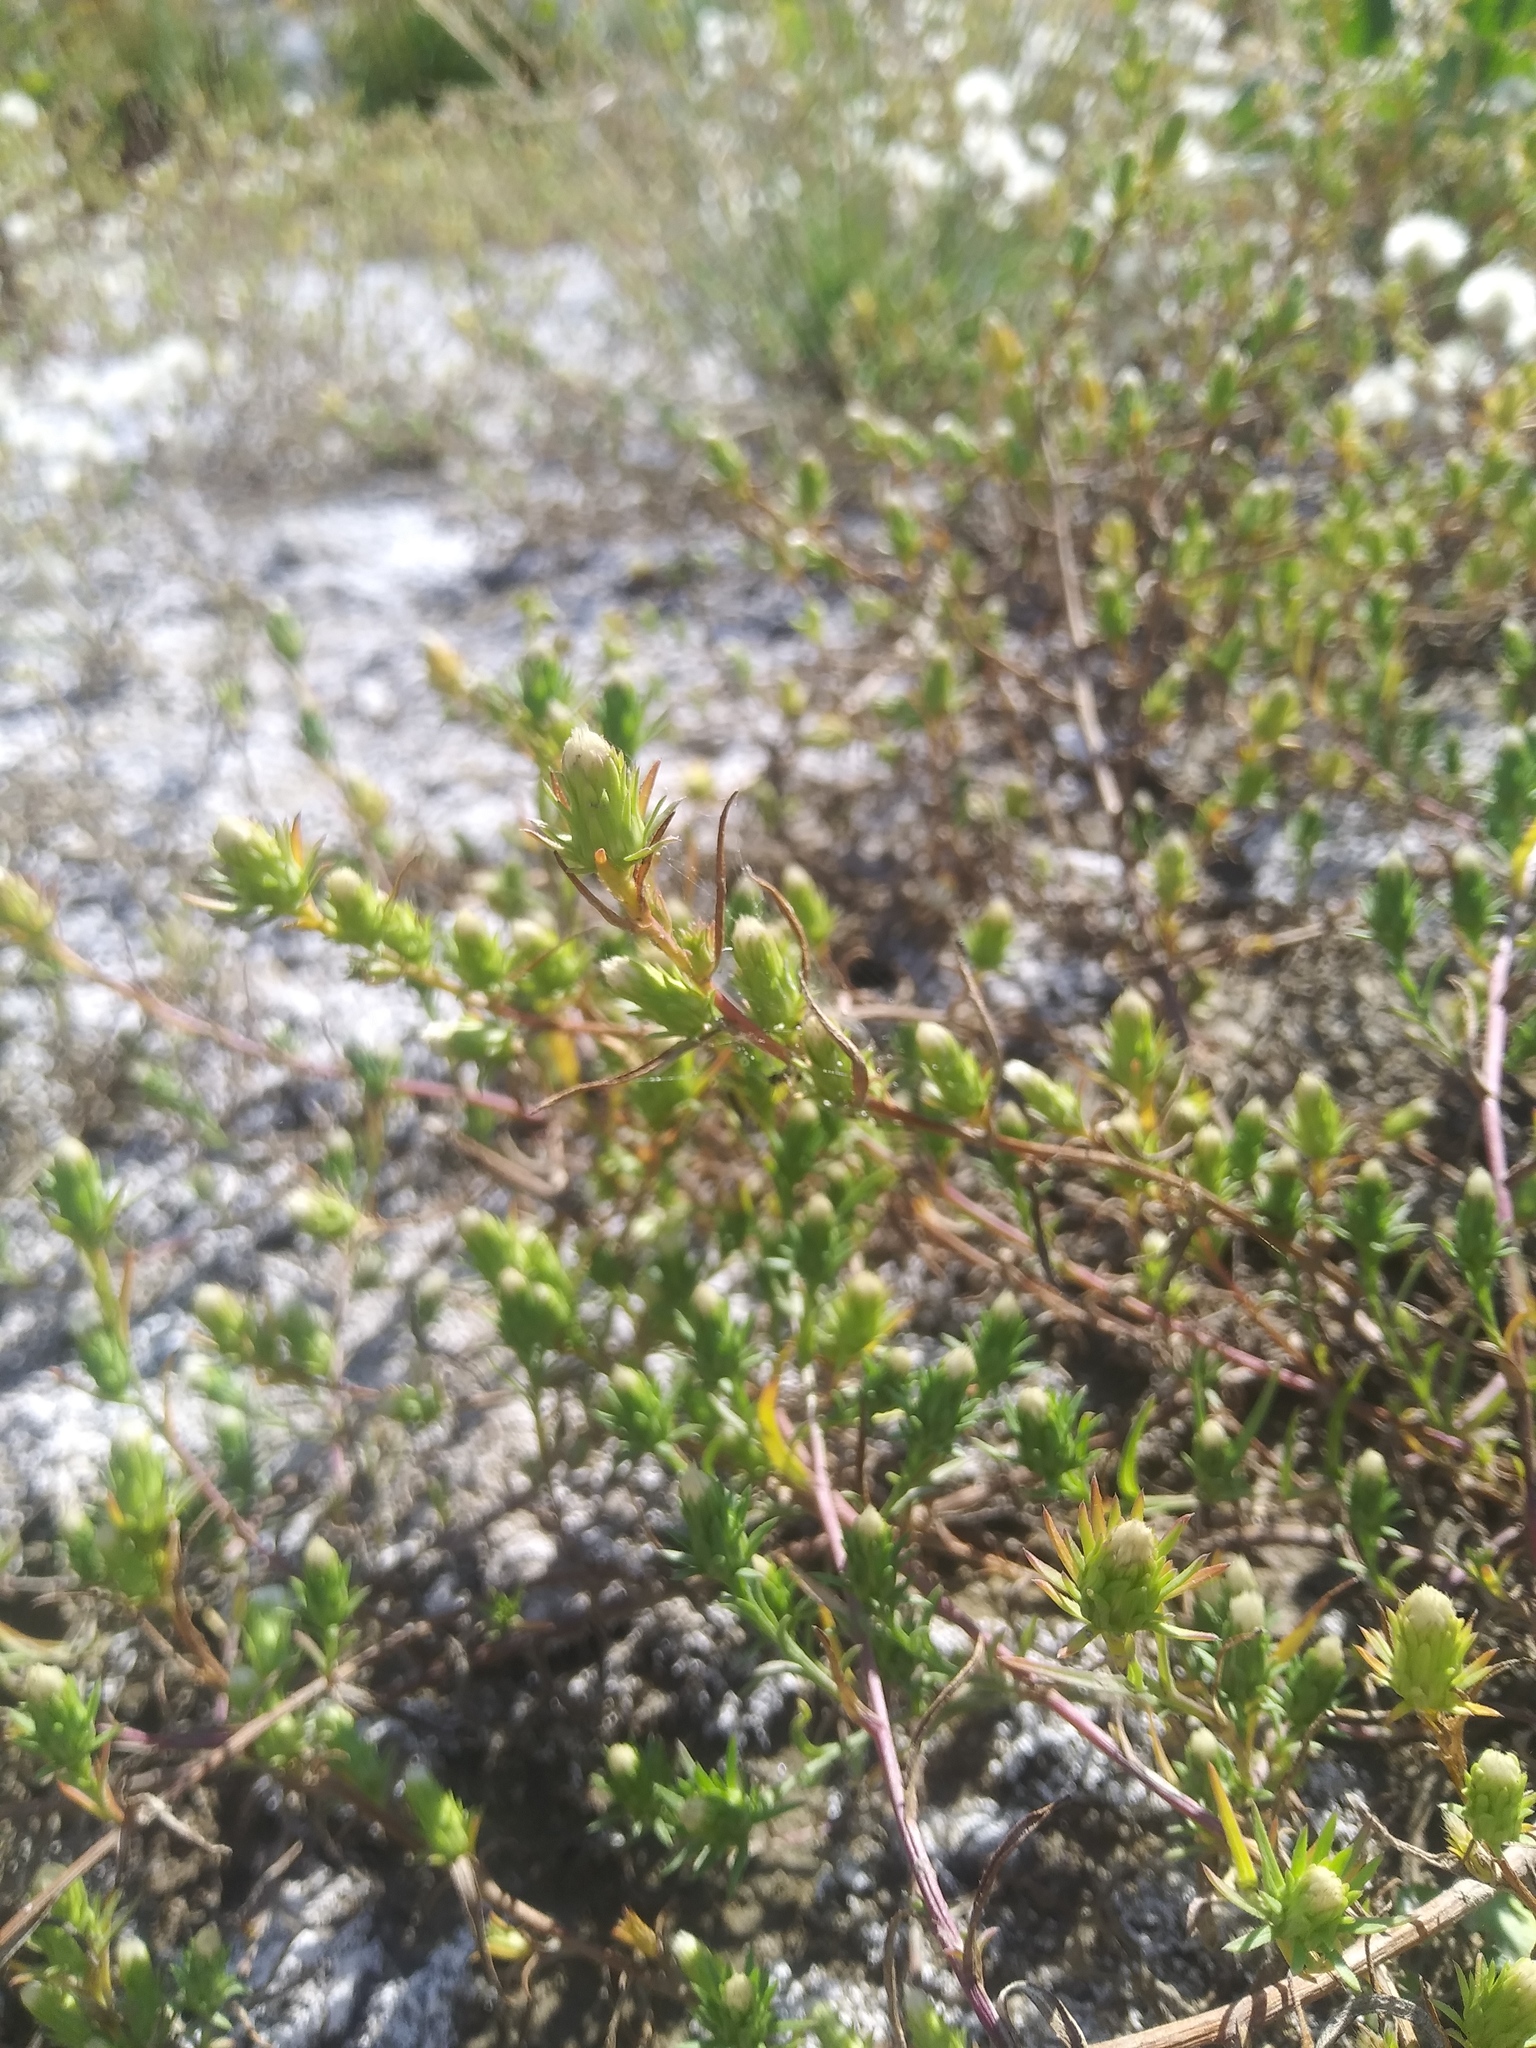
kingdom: Plantae
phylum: Tracheophyta
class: Magnoliopsida
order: Asterales
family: Asteraceae
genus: Symphyotrichum
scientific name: Symphyotrichum ciliatum
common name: Rayless annual aster
